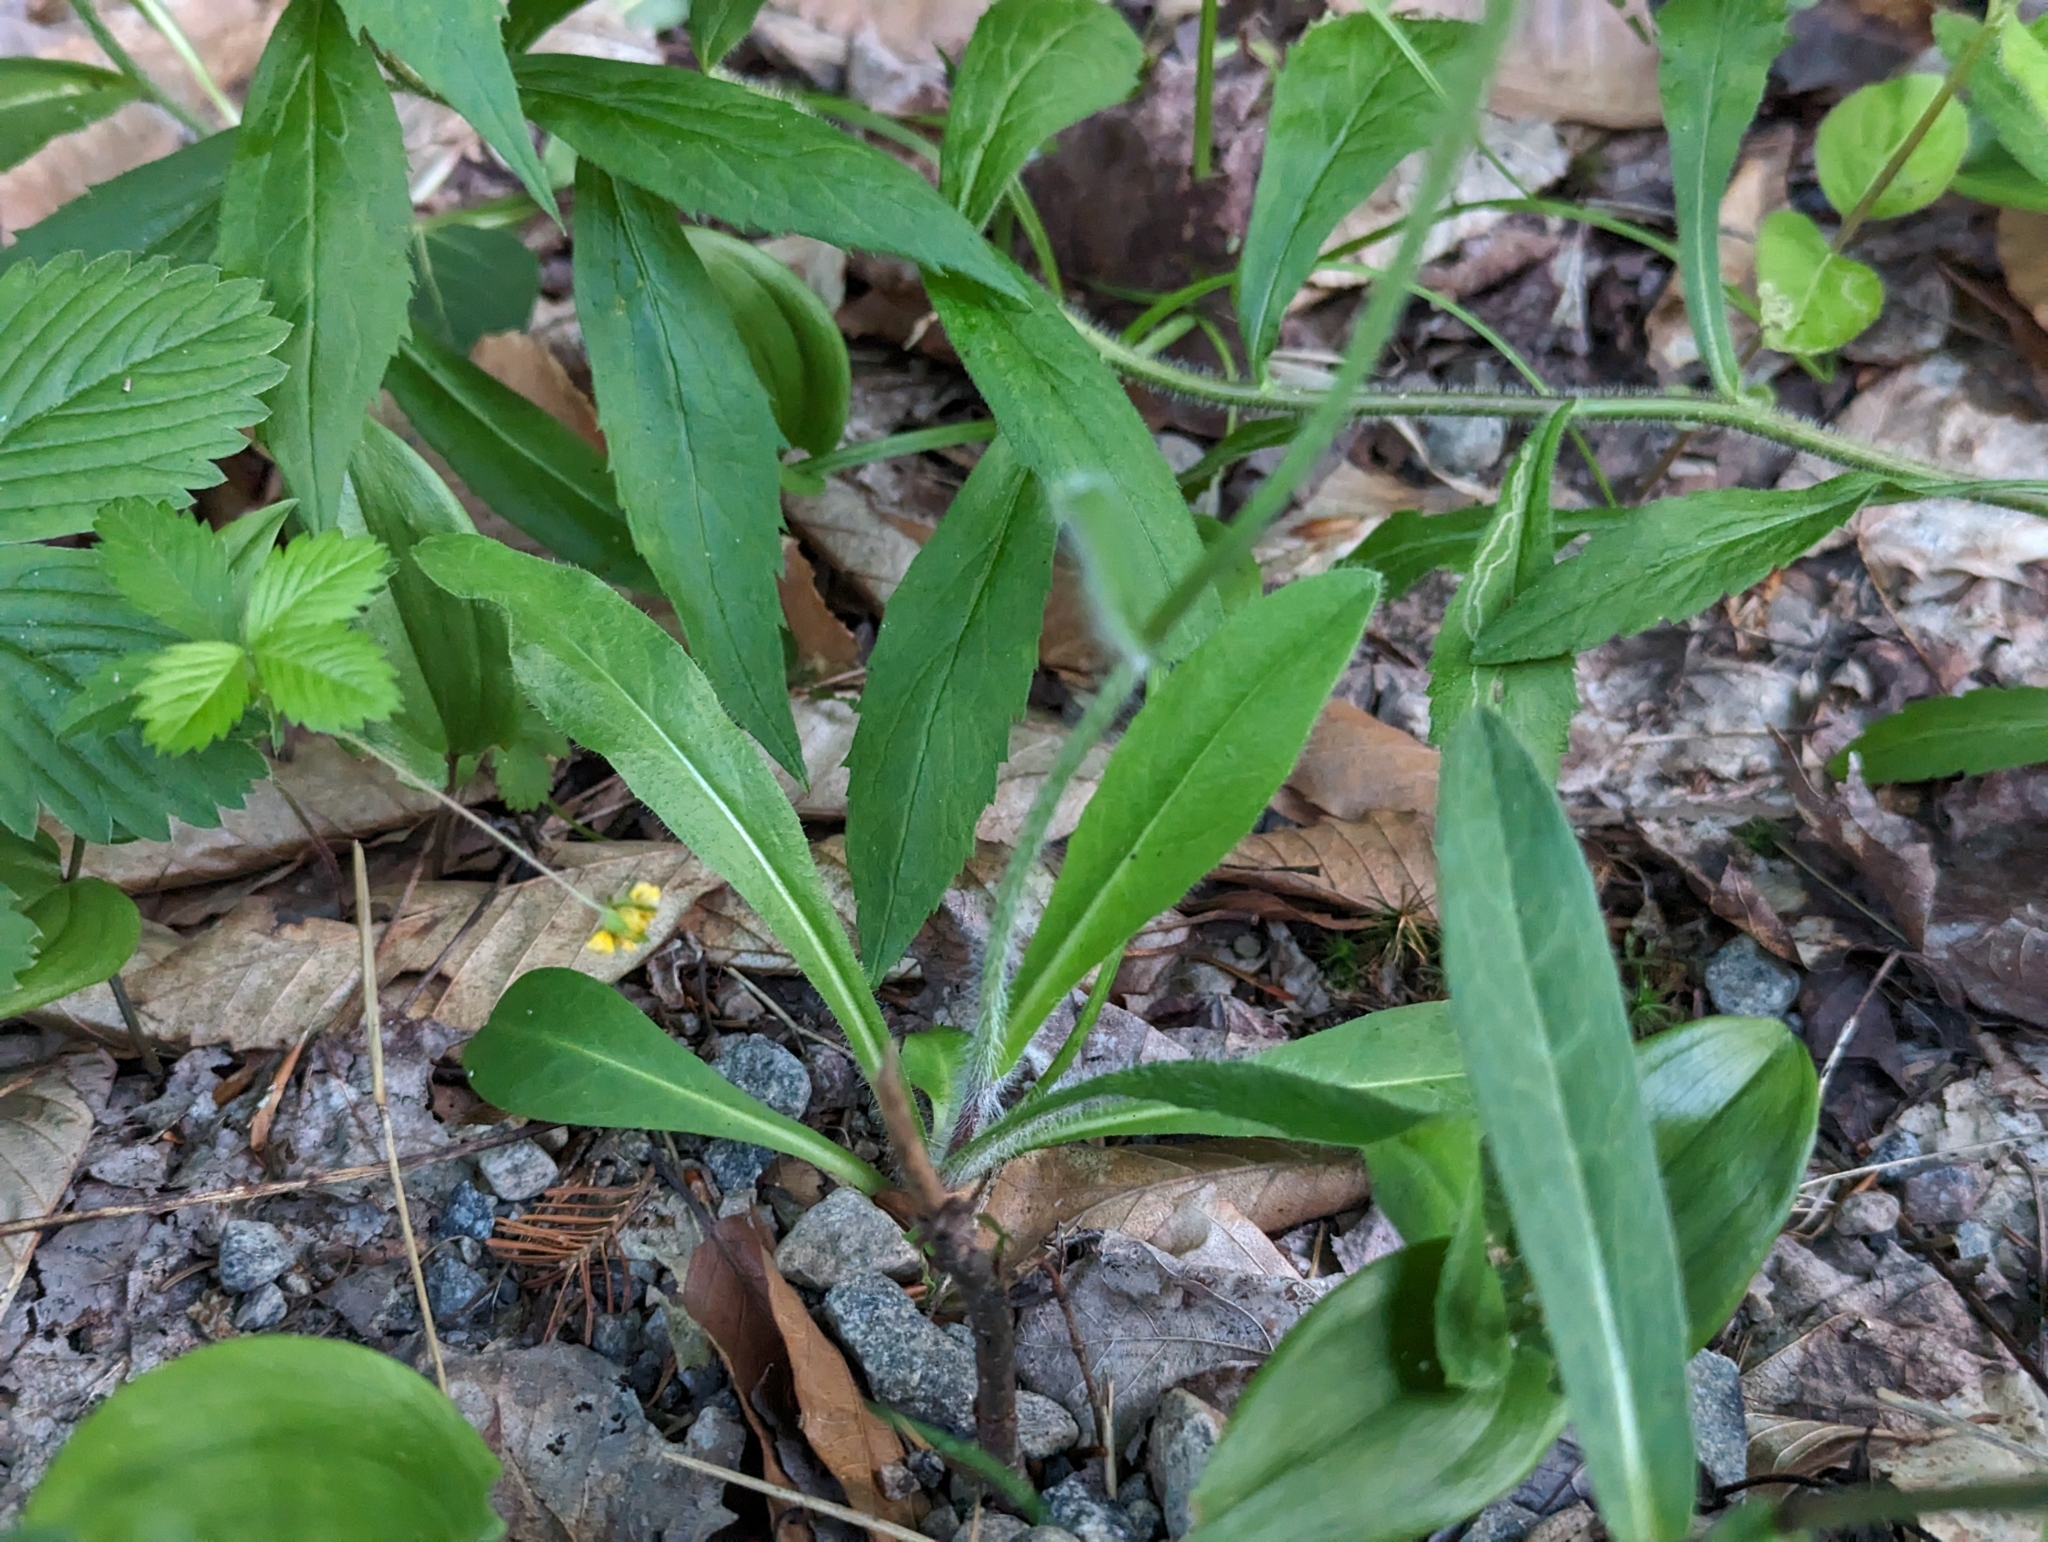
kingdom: Plantae
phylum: Tracheophyta
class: Magnoliopsida
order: Asterales
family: Asteraceae
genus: Pilosella
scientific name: Pilosella aurantiaca
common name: Fox-and-cubs
